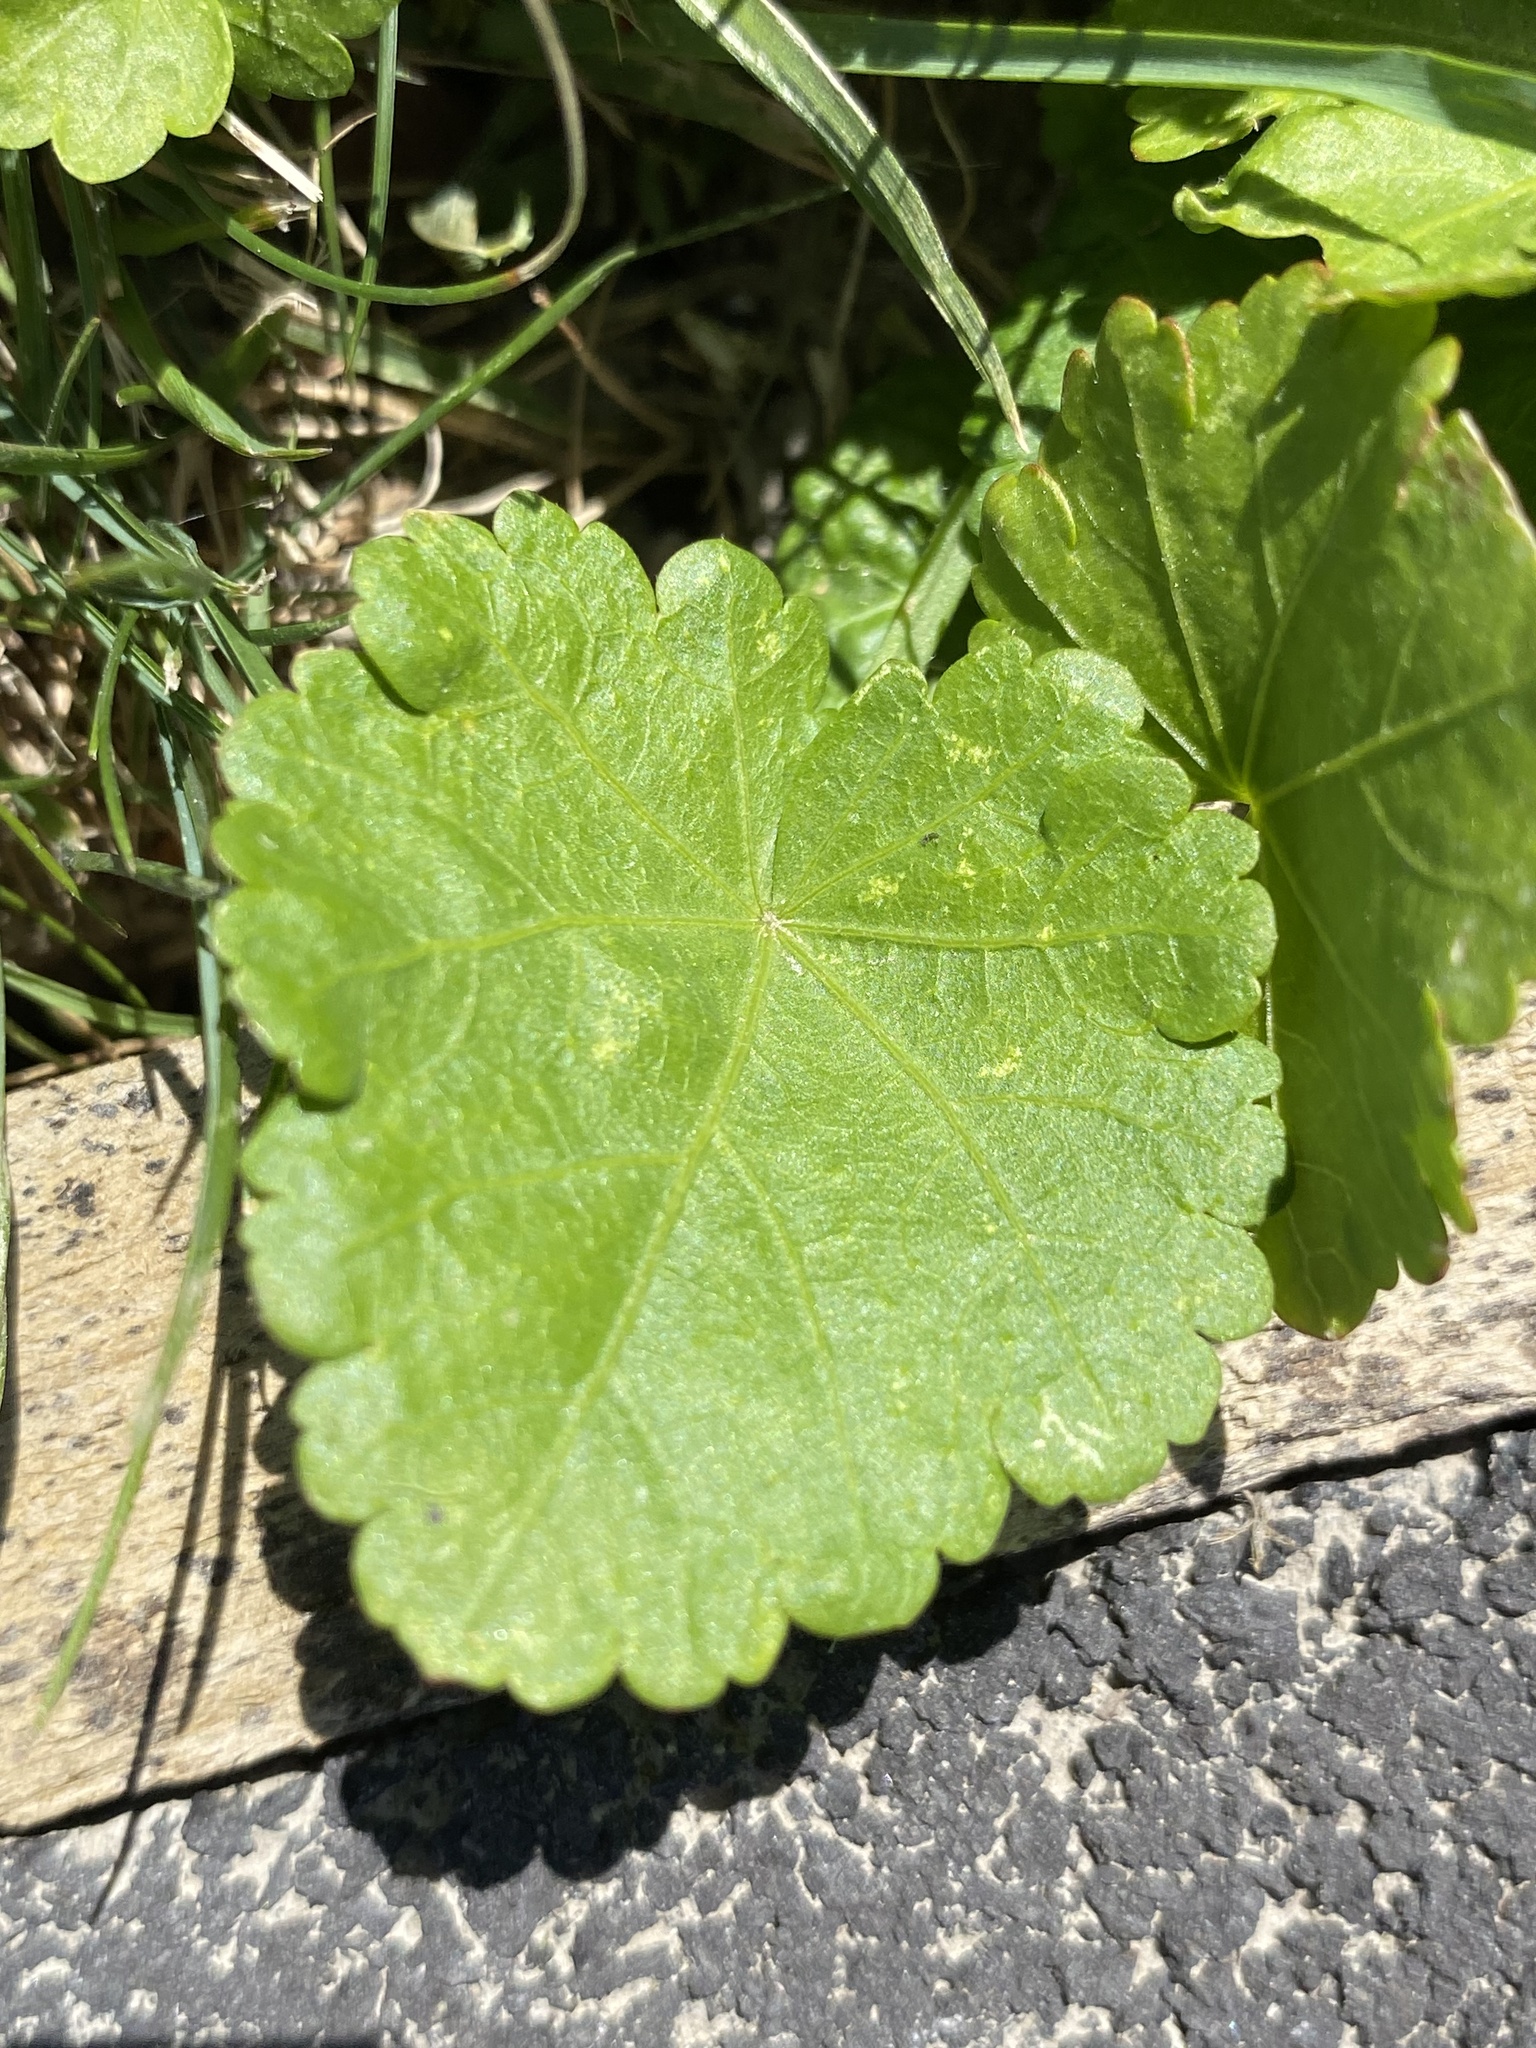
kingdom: Plantae
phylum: Tracheophyta
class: Magnoliopsida
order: Malvales
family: Malvaceae
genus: Modiola
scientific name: Modiola caroliniana
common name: Carolina bristlemallow
